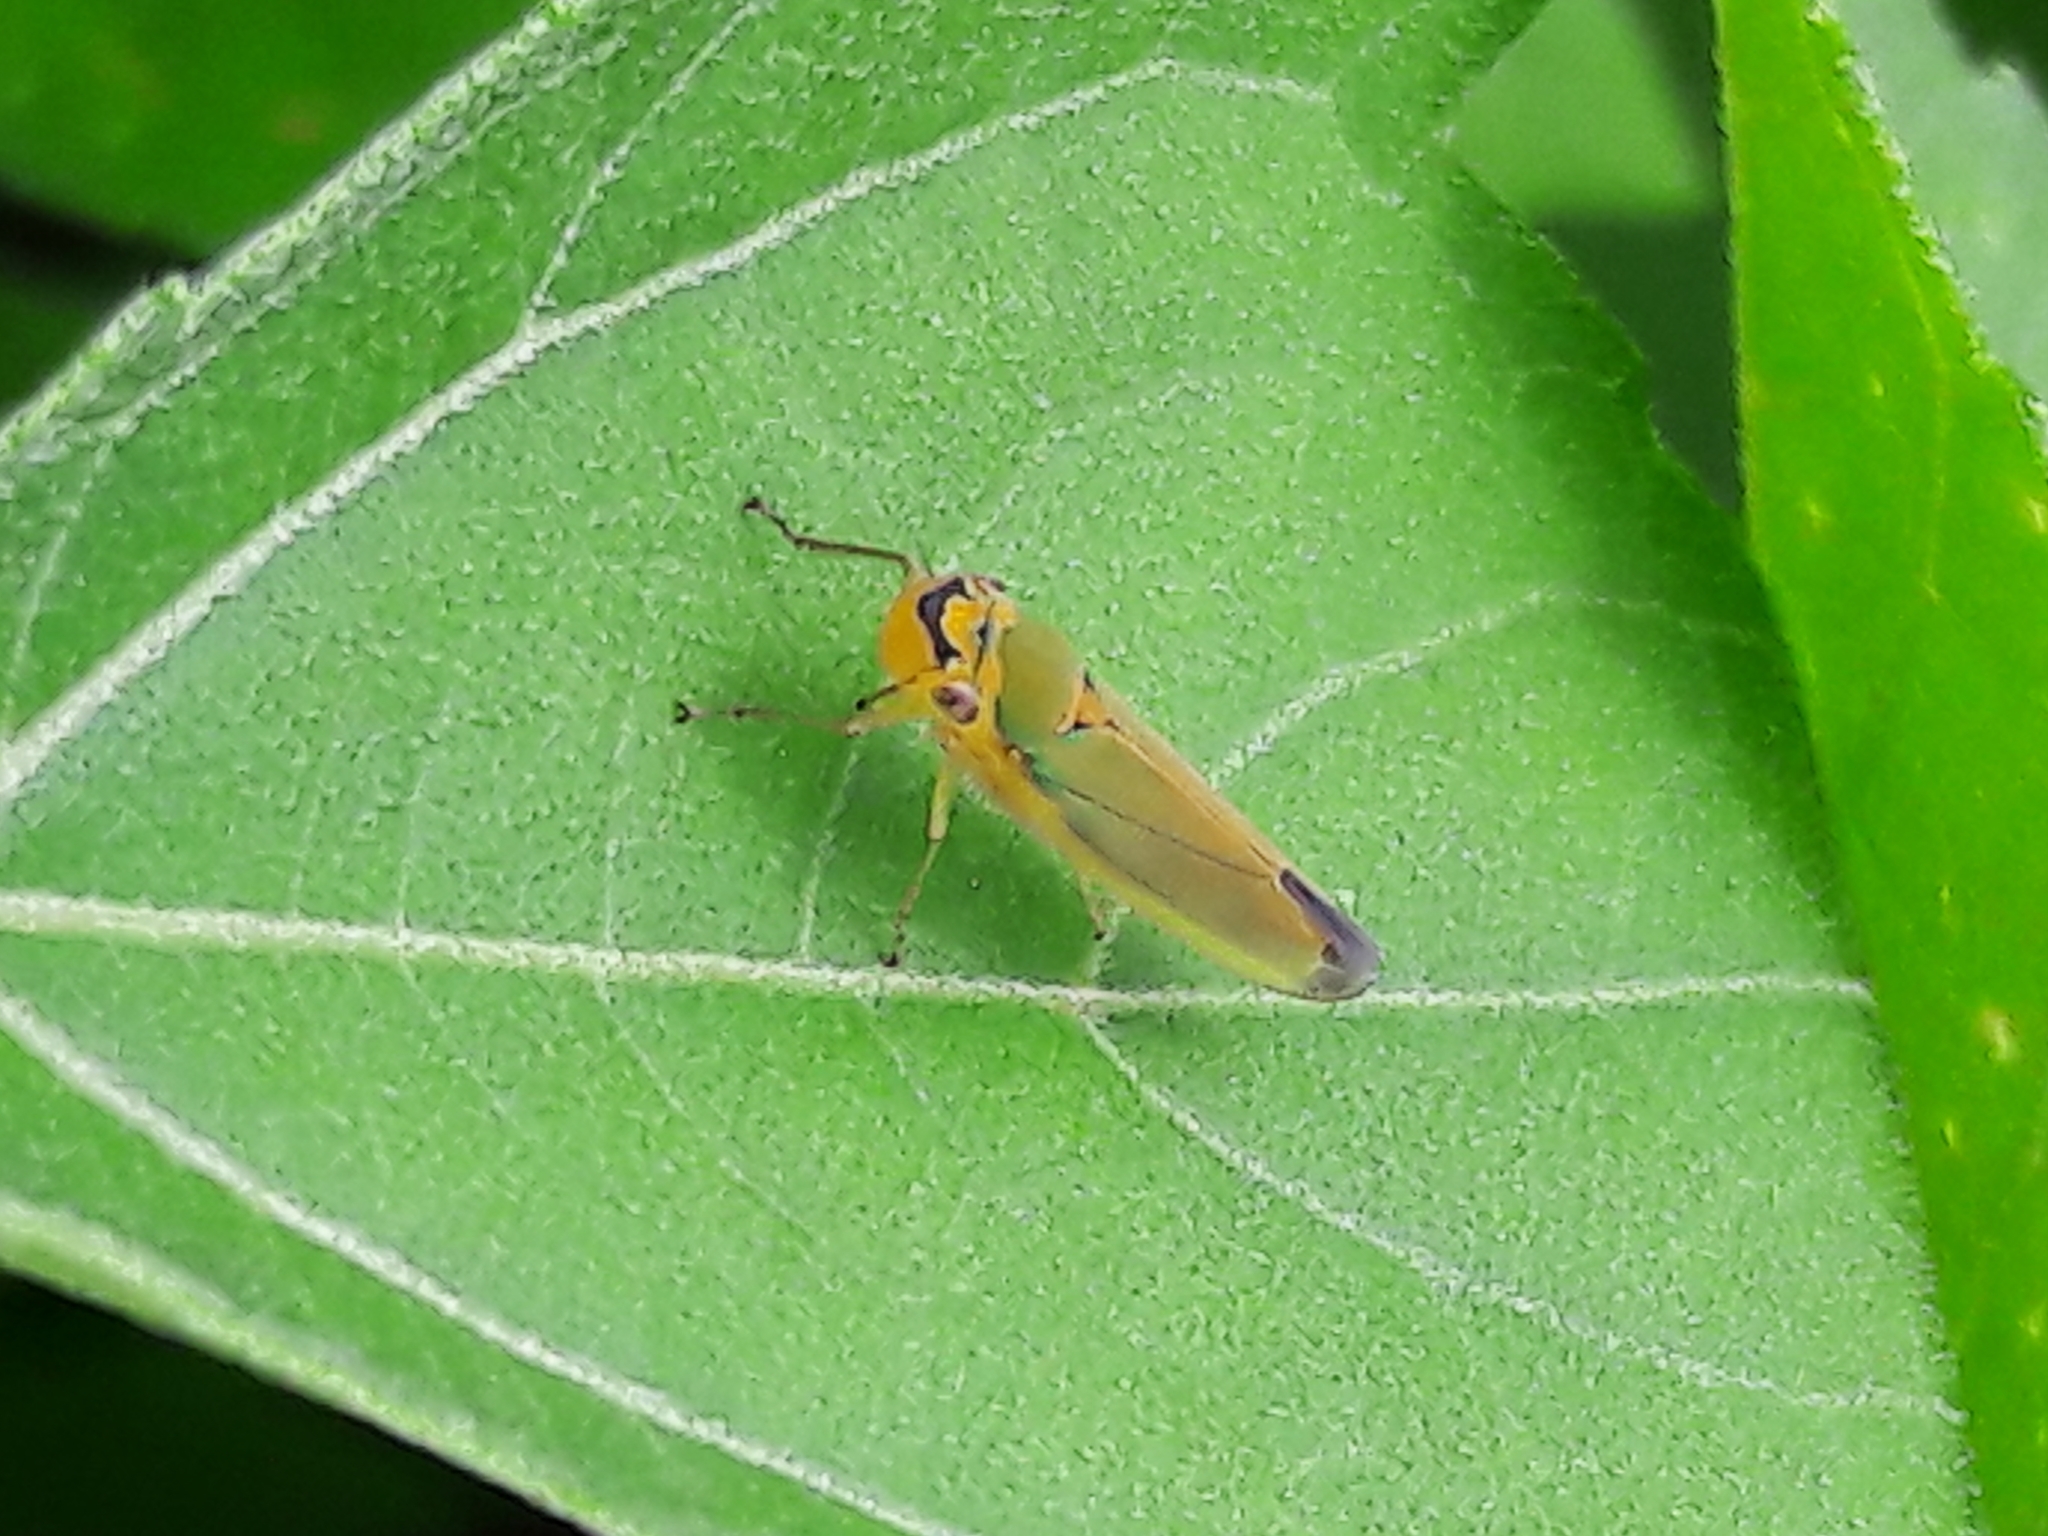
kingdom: Animalia
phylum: Arthropoda
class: Insecta
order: Hemiptera
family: Cicadellidae
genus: Catagonalia
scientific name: Catagonalia conjunctula
